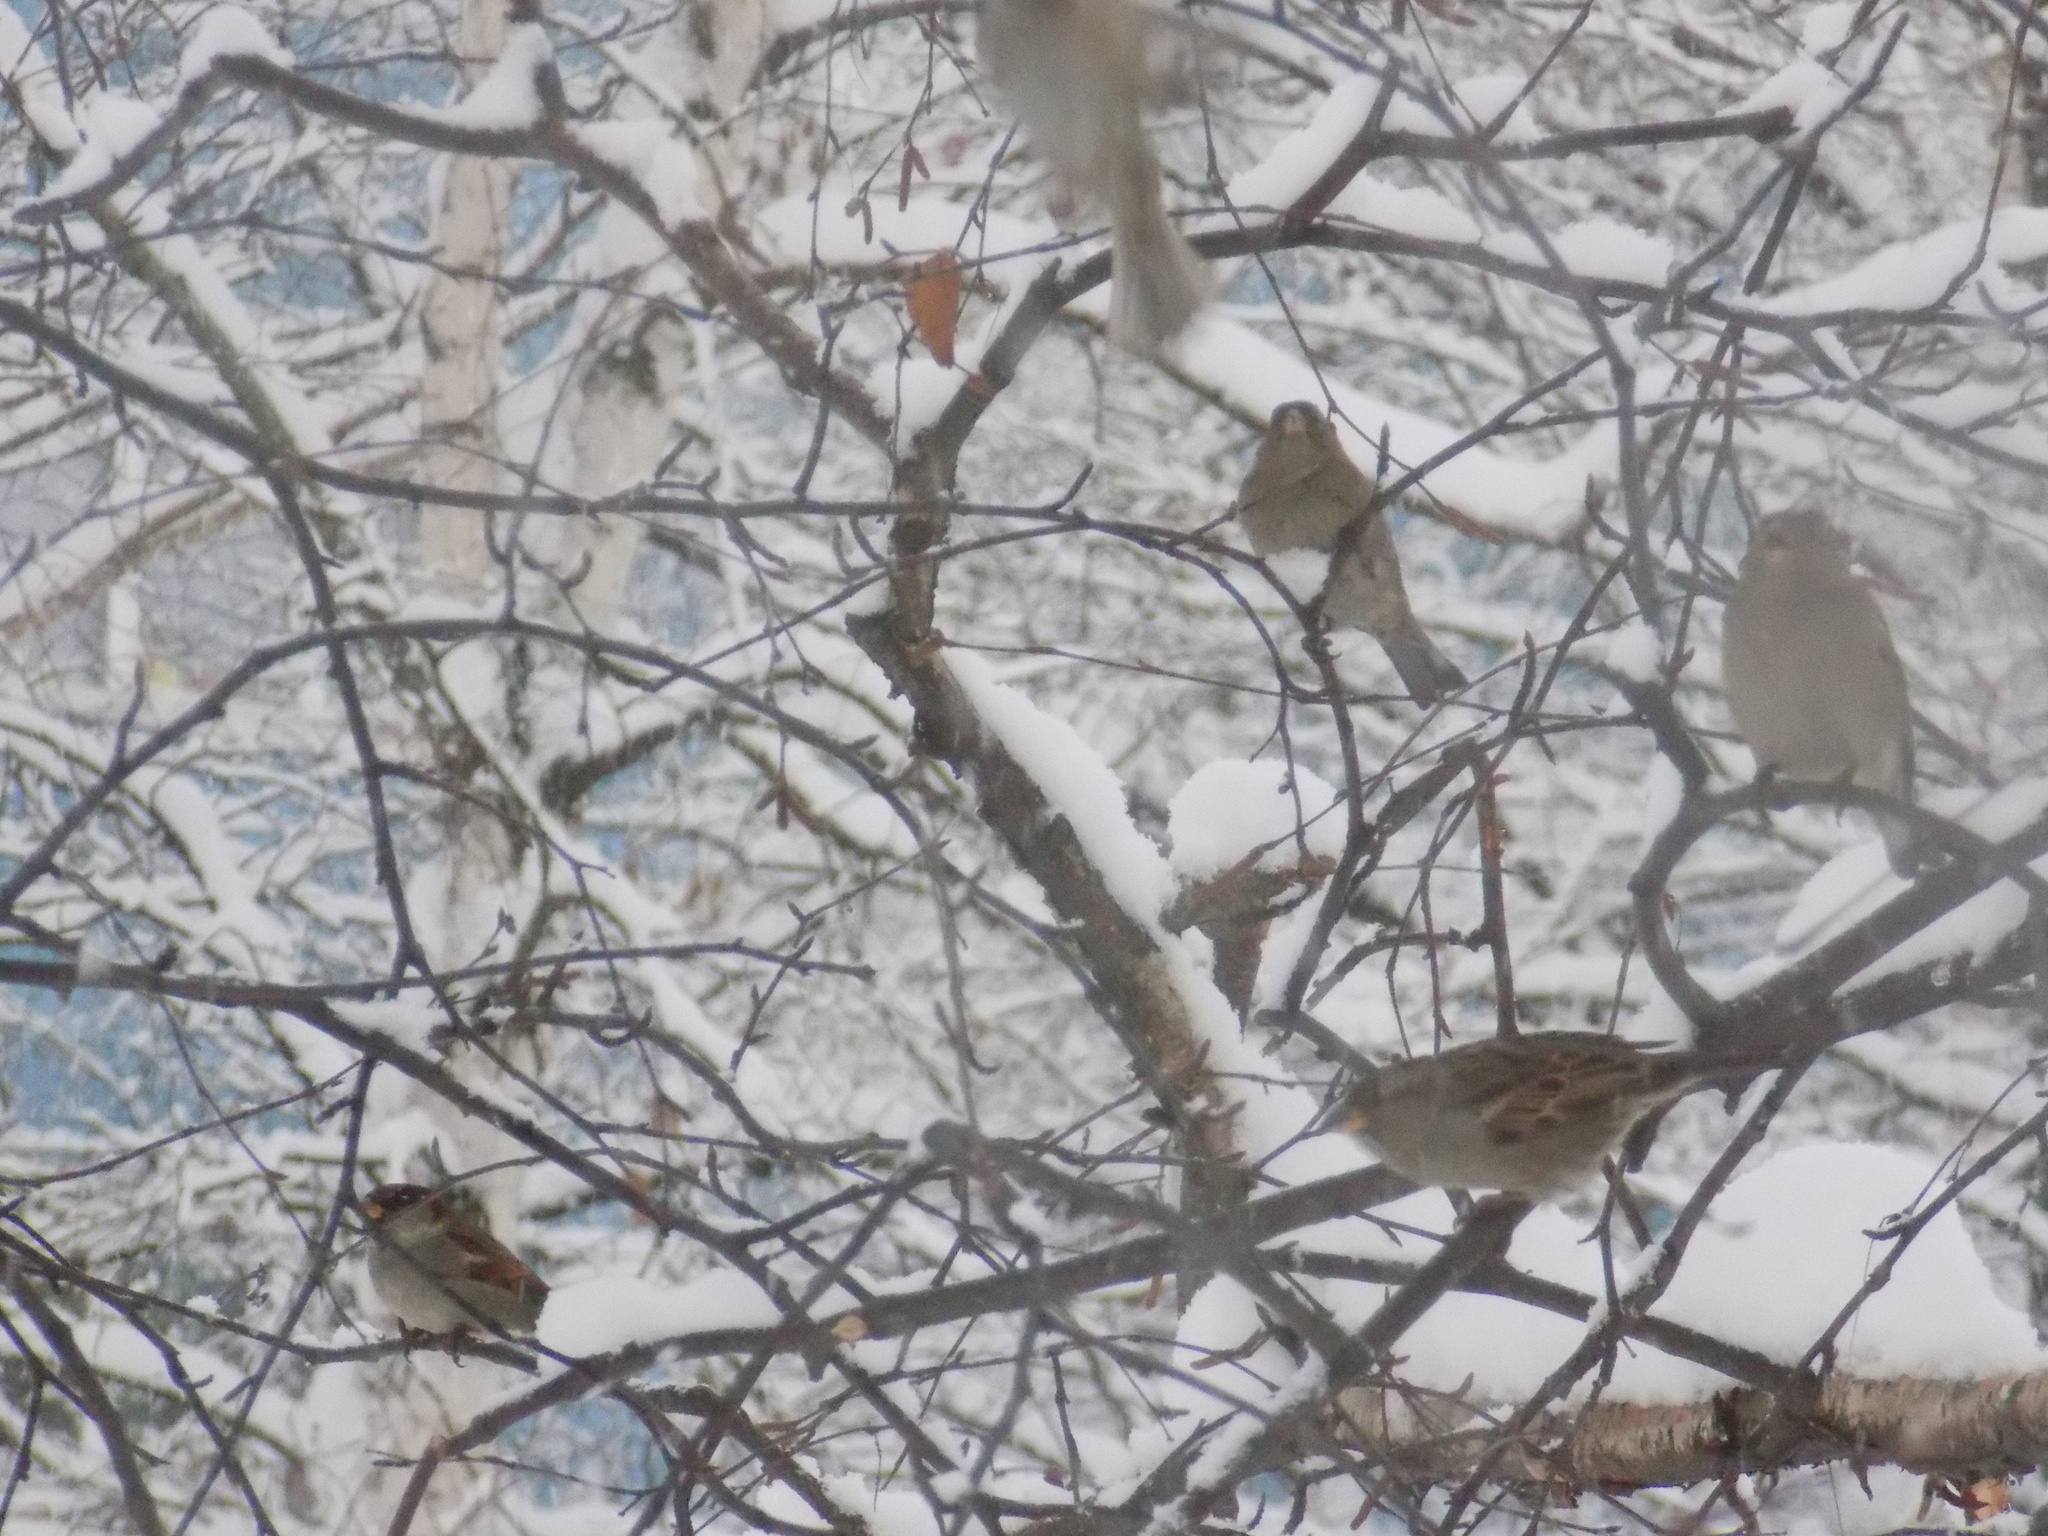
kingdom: Animalia
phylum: Chordata
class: Aves
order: Passeriformes
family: Passeridae
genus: Passer
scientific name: Passer domesticus
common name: House sparrow
